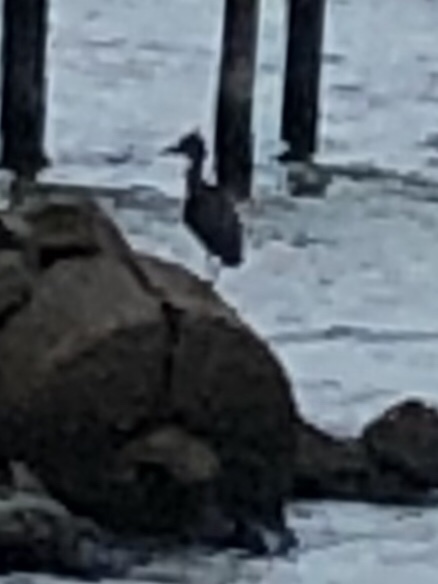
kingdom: Animalia
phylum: Chordata
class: Aves
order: Pelecaniformes
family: Ardeidae
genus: Egretta
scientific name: Egretta rufescens
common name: Reddish egret
